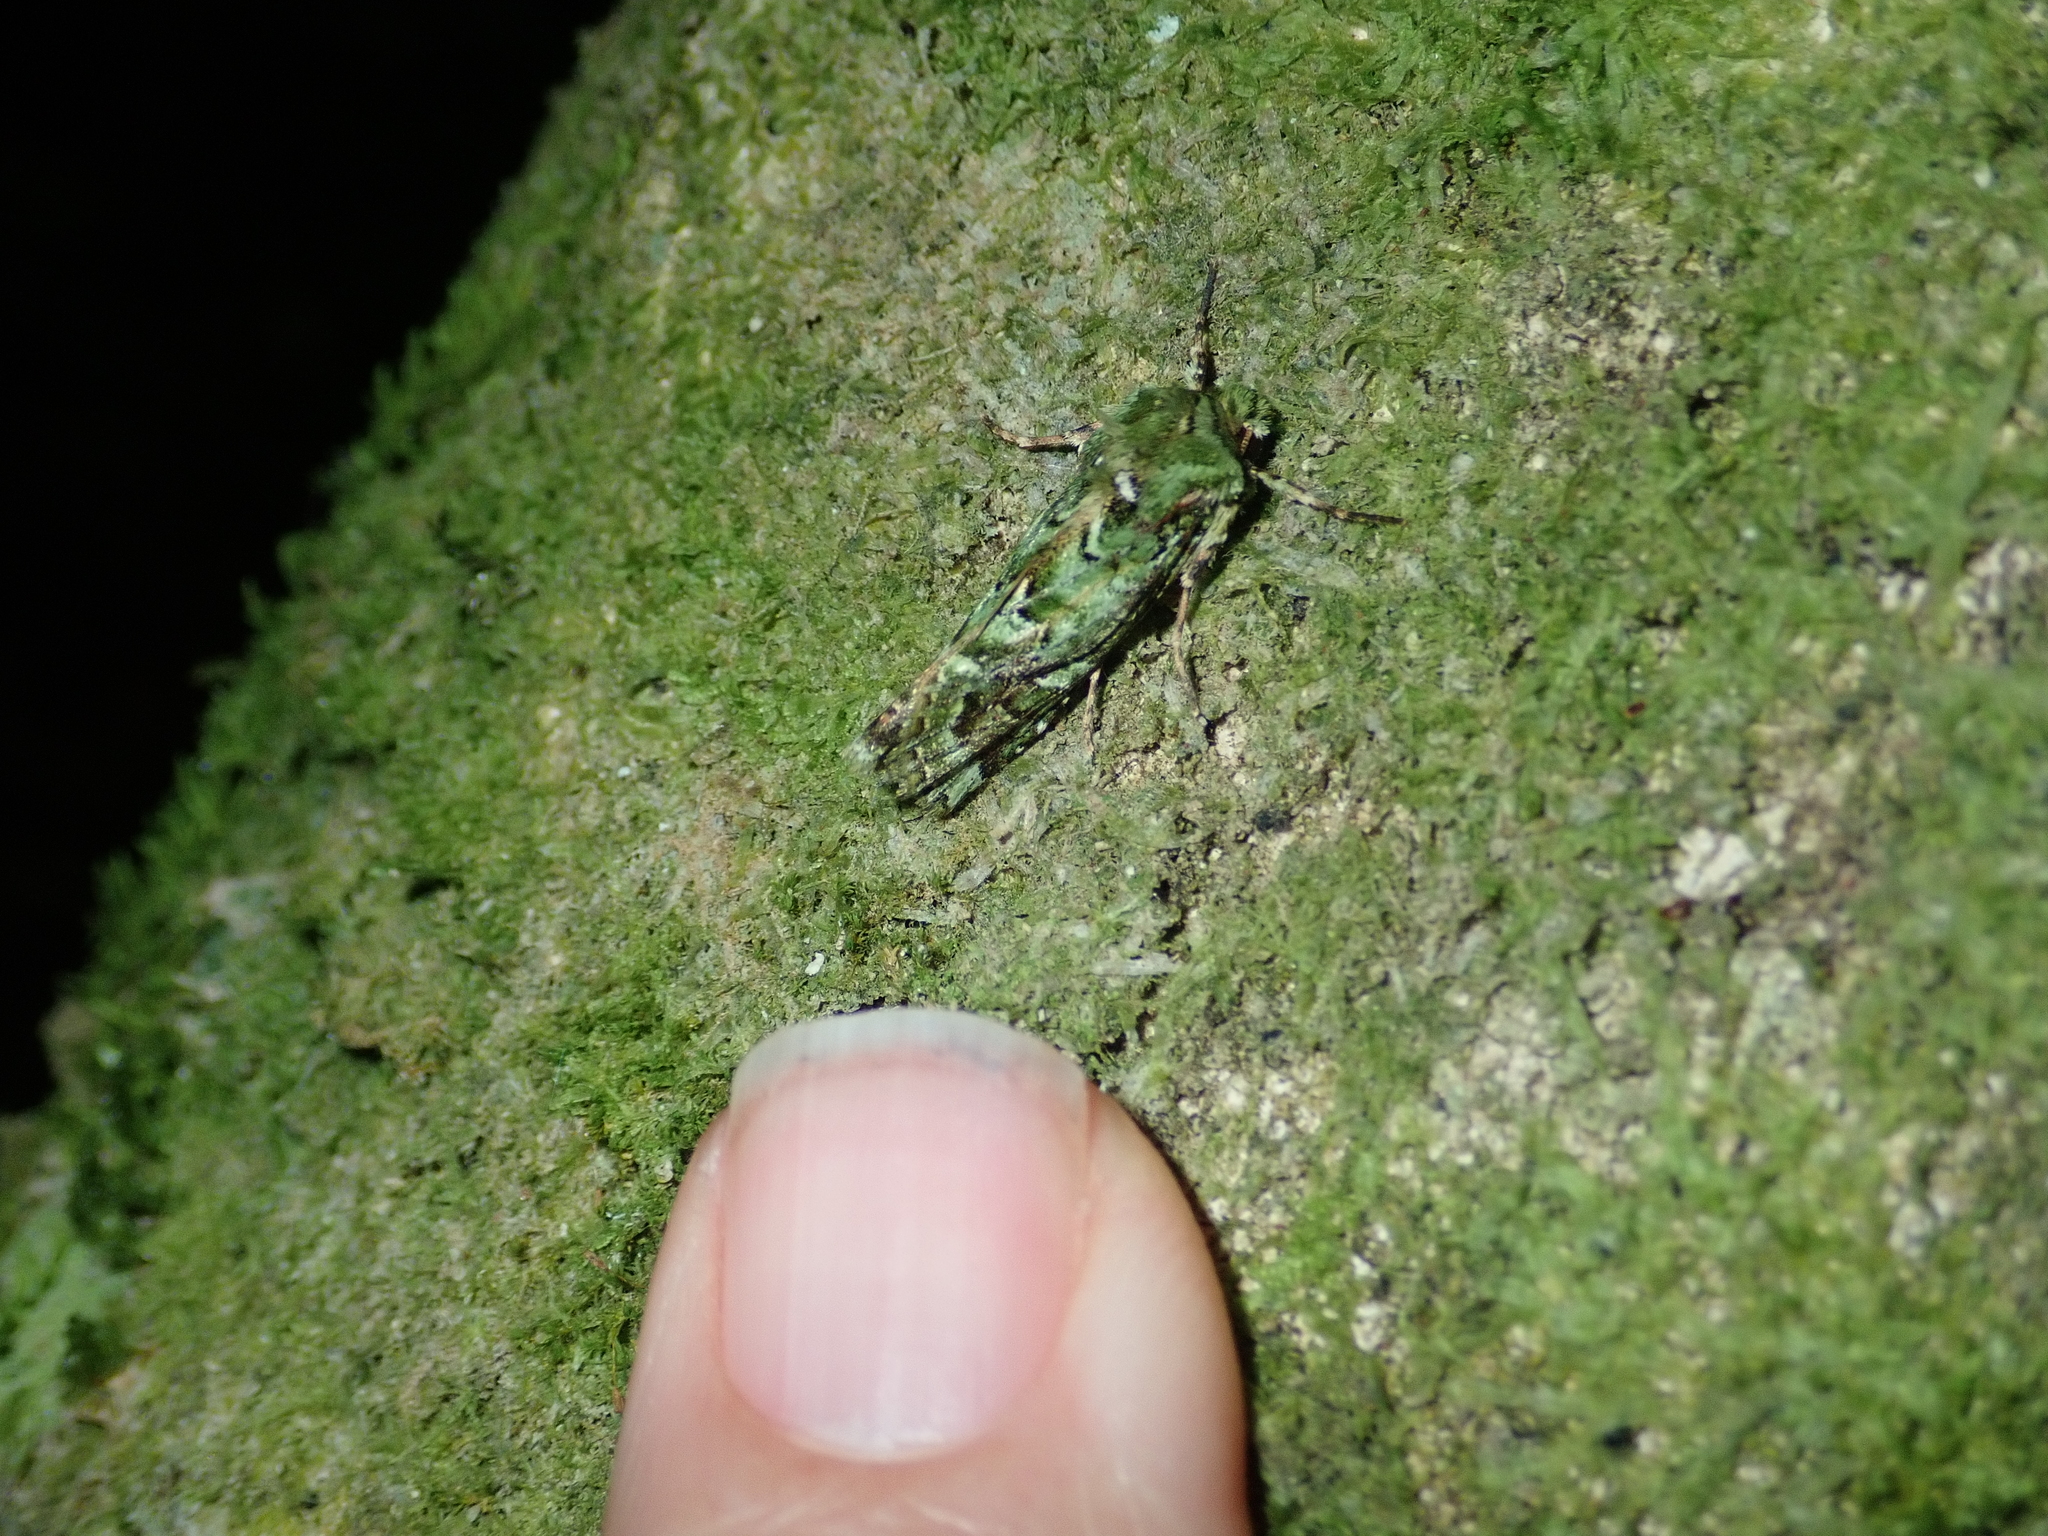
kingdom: Animalia
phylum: Arthropoda
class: Insecta
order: Lepidoptera
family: Noctuidae
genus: Feredayia
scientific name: Feredayia grammosa
